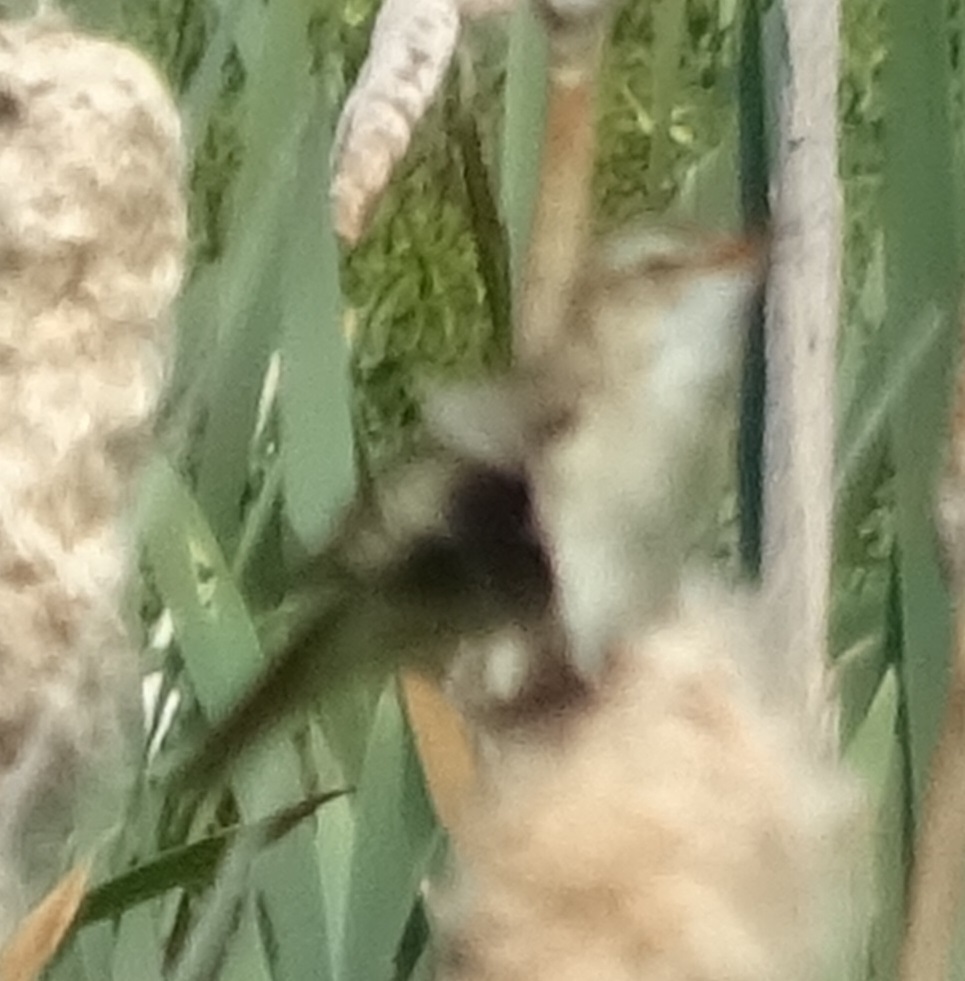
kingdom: Animalia
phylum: Chordata
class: Aves
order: Passeriformes
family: Acrocephalidae
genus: Acrocephalus
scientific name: Acrocephalus schoenobaenus
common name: Sedge warbler
